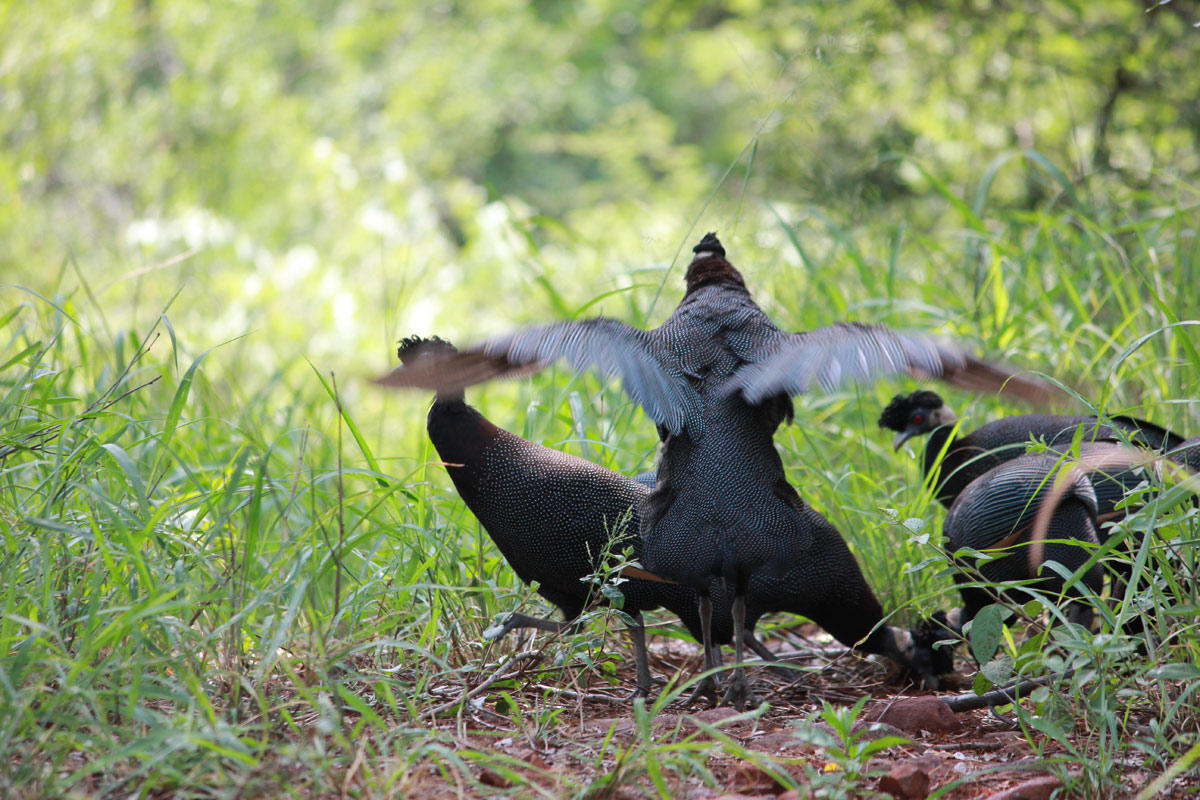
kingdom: Animalia
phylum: Chordata
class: Aves
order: Galliformes
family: Numididae
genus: Guttera
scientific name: Guttera pucherani
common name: Crested guineafowl
